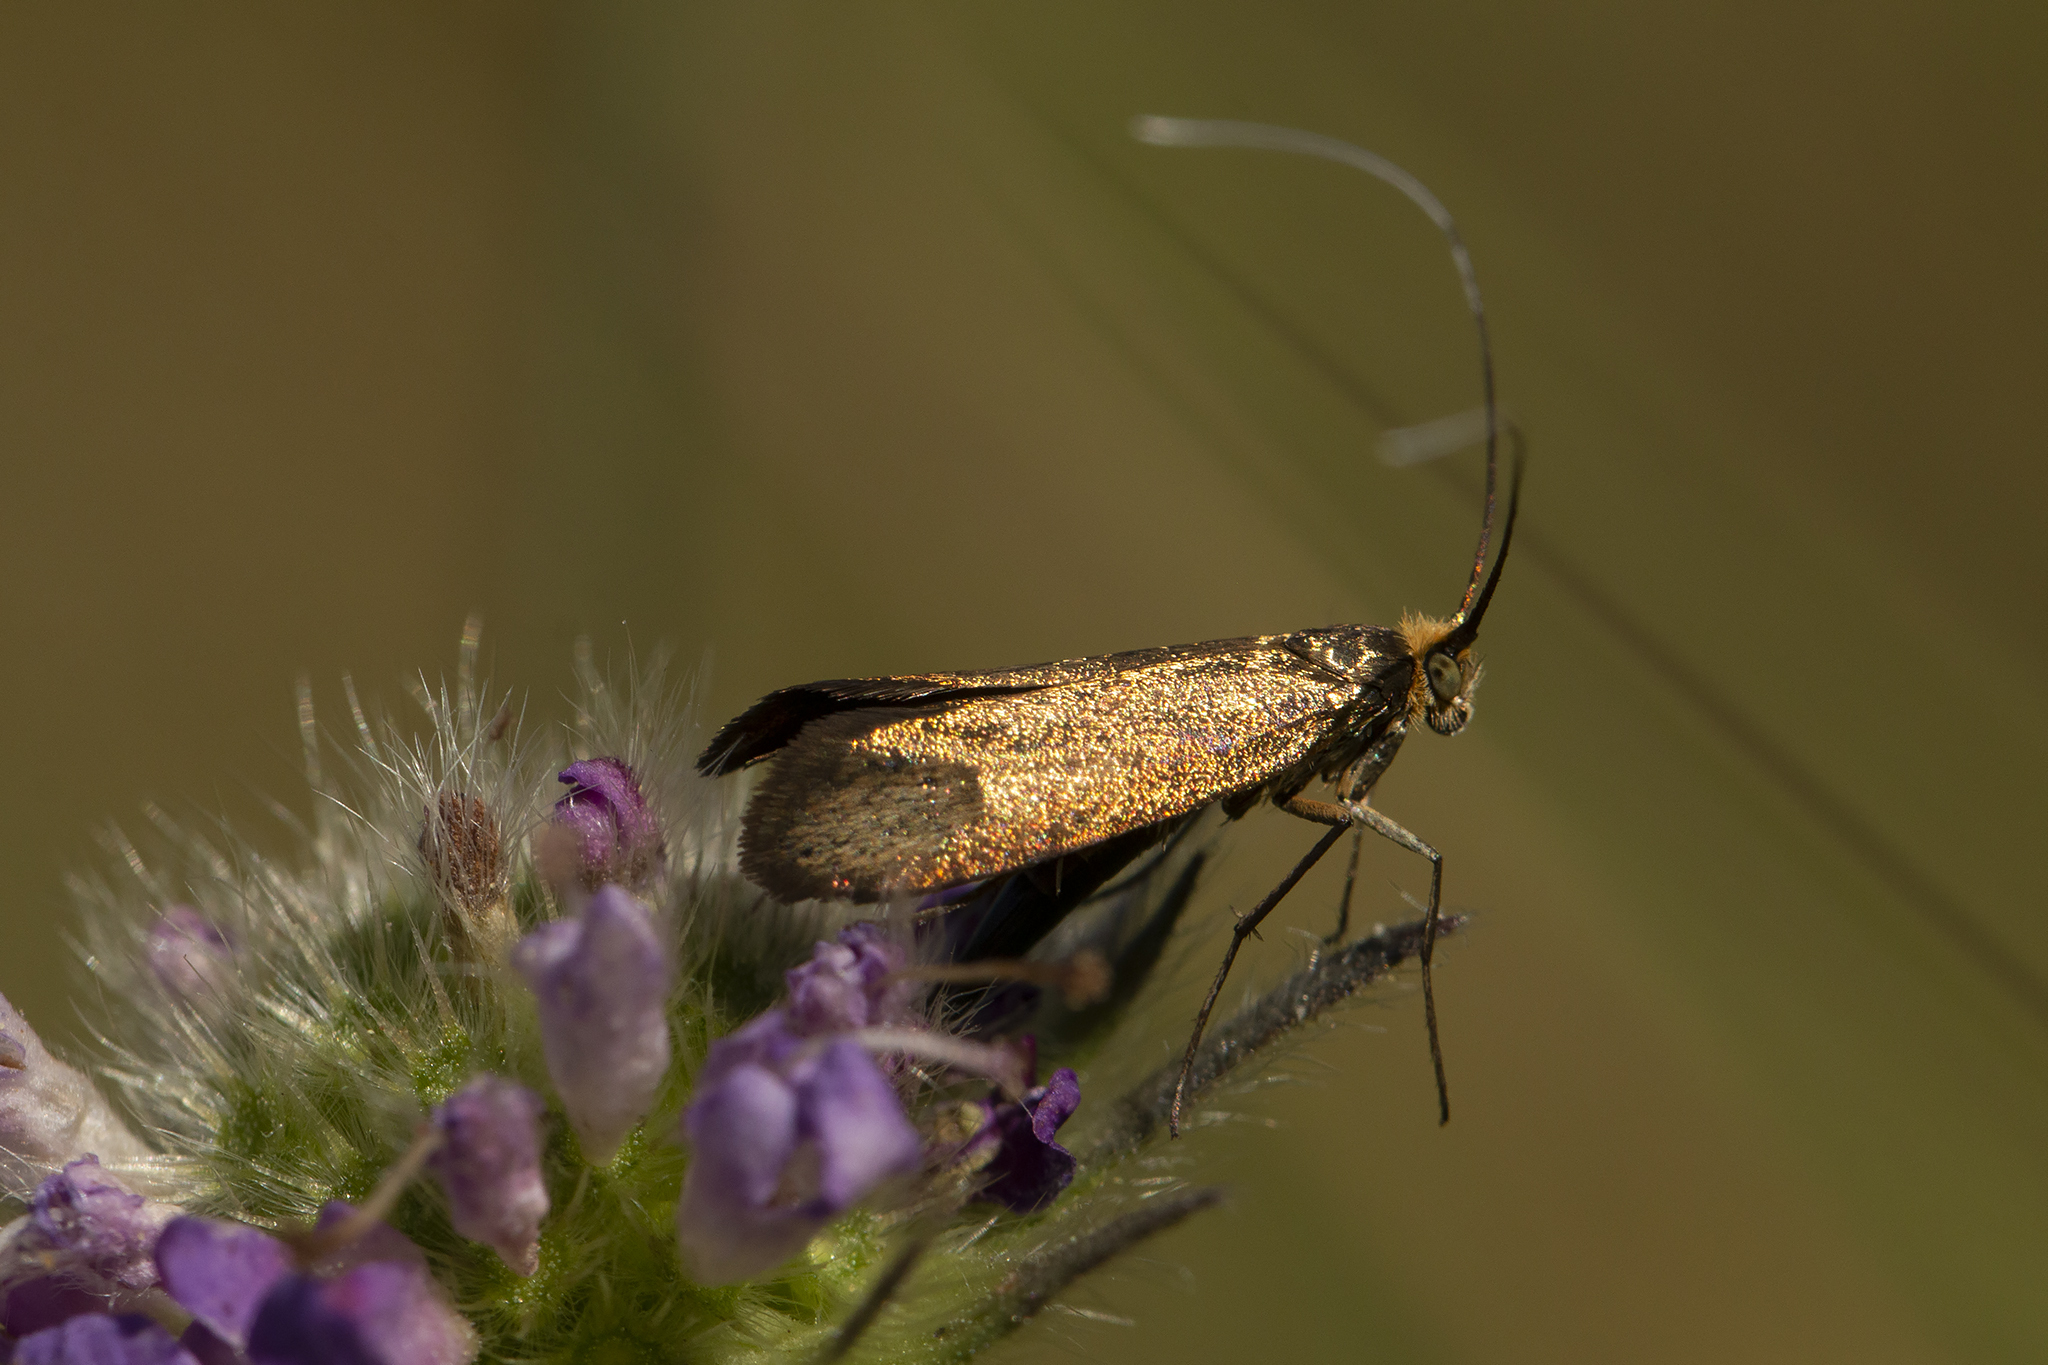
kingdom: Animalia
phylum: Arthropoda
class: Insecta
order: Lepidoptera
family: Adelidae
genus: Nemophora
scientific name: Nemophora metallica
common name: Brassy long-horn
